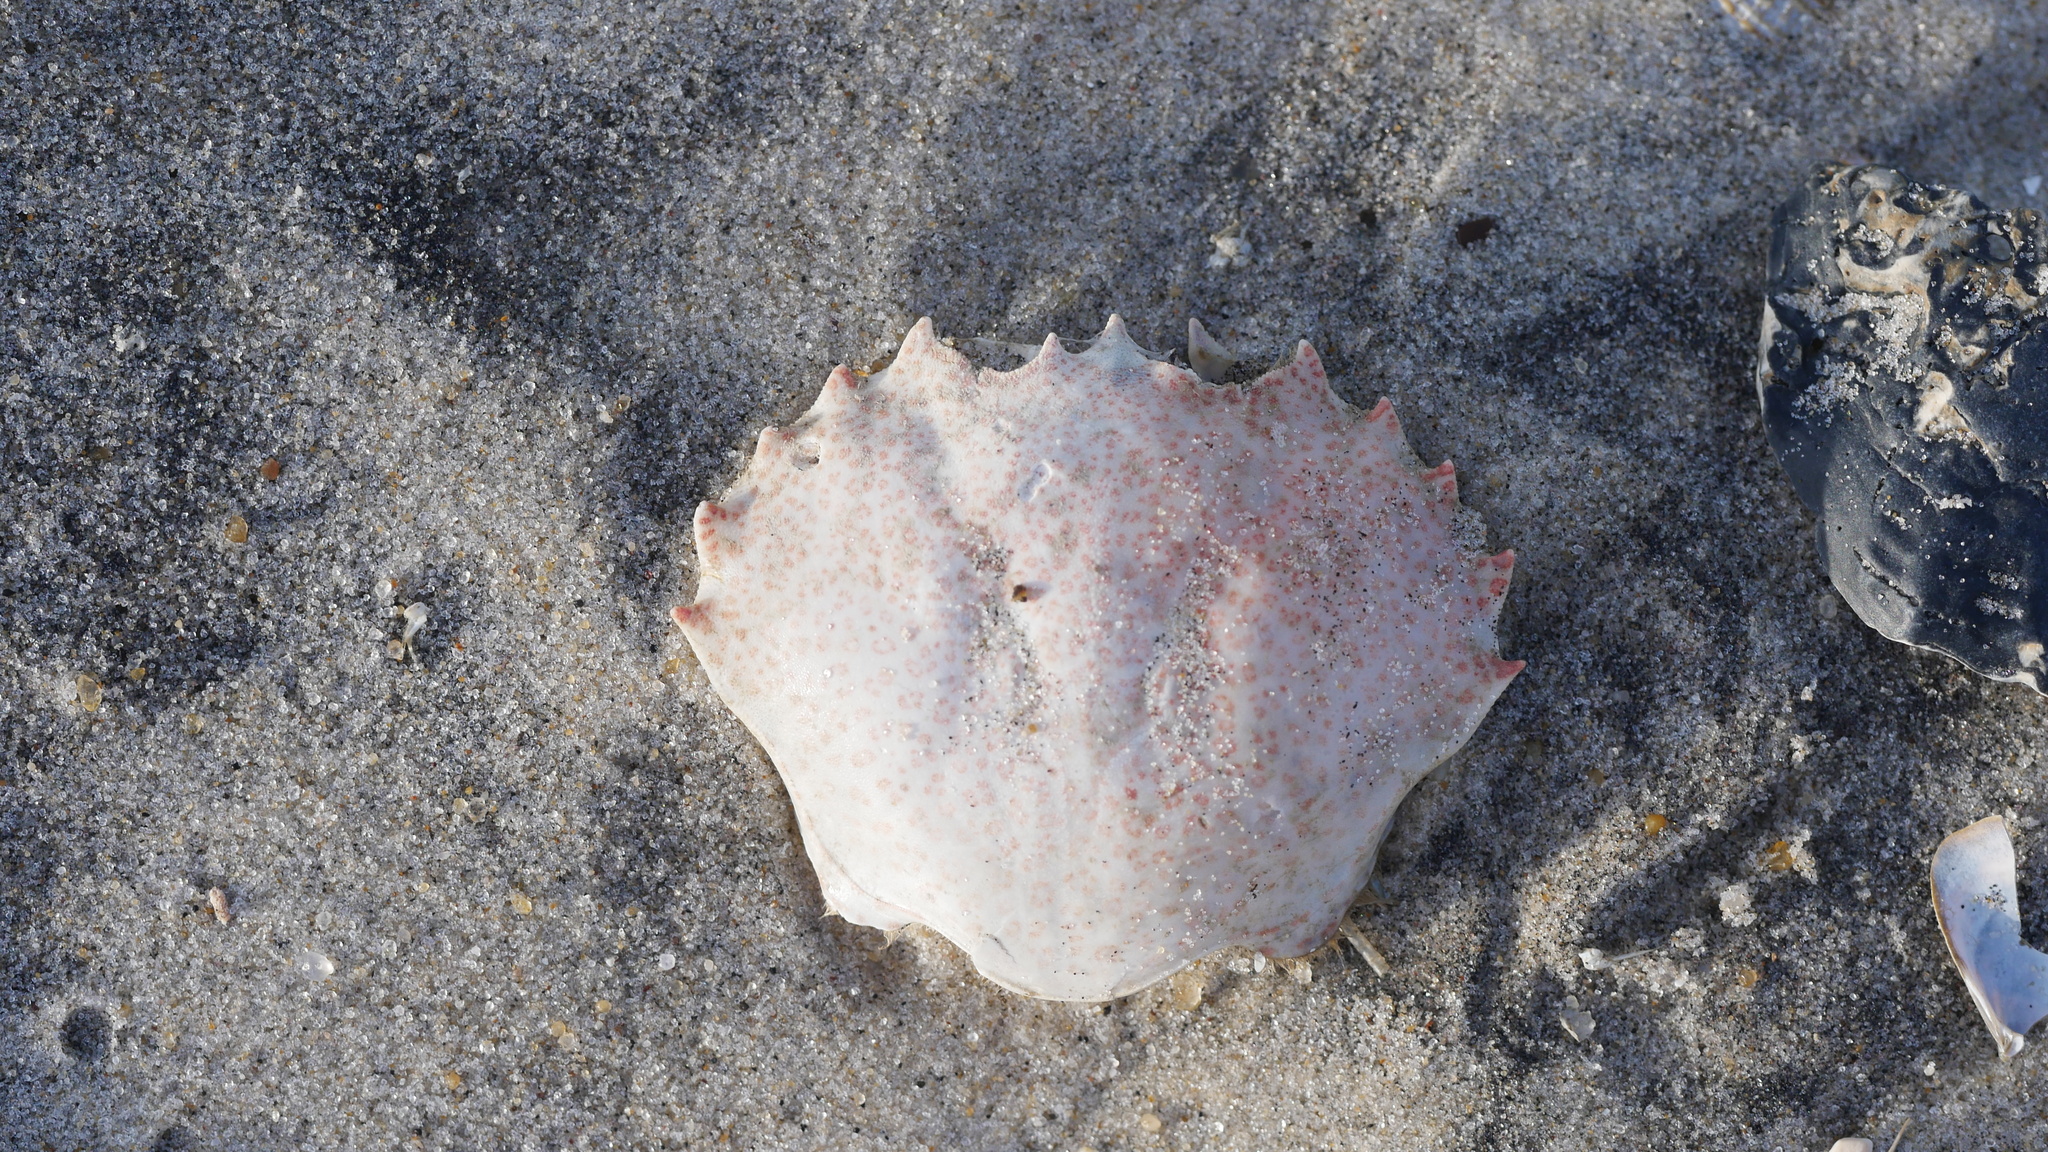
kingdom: Animalia
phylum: Arthropoda
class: Malacostraca
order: Decapoda
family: Ovalipidae
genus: Ovalipes
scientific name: Ovalipes ocellatus
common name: Lady crab
